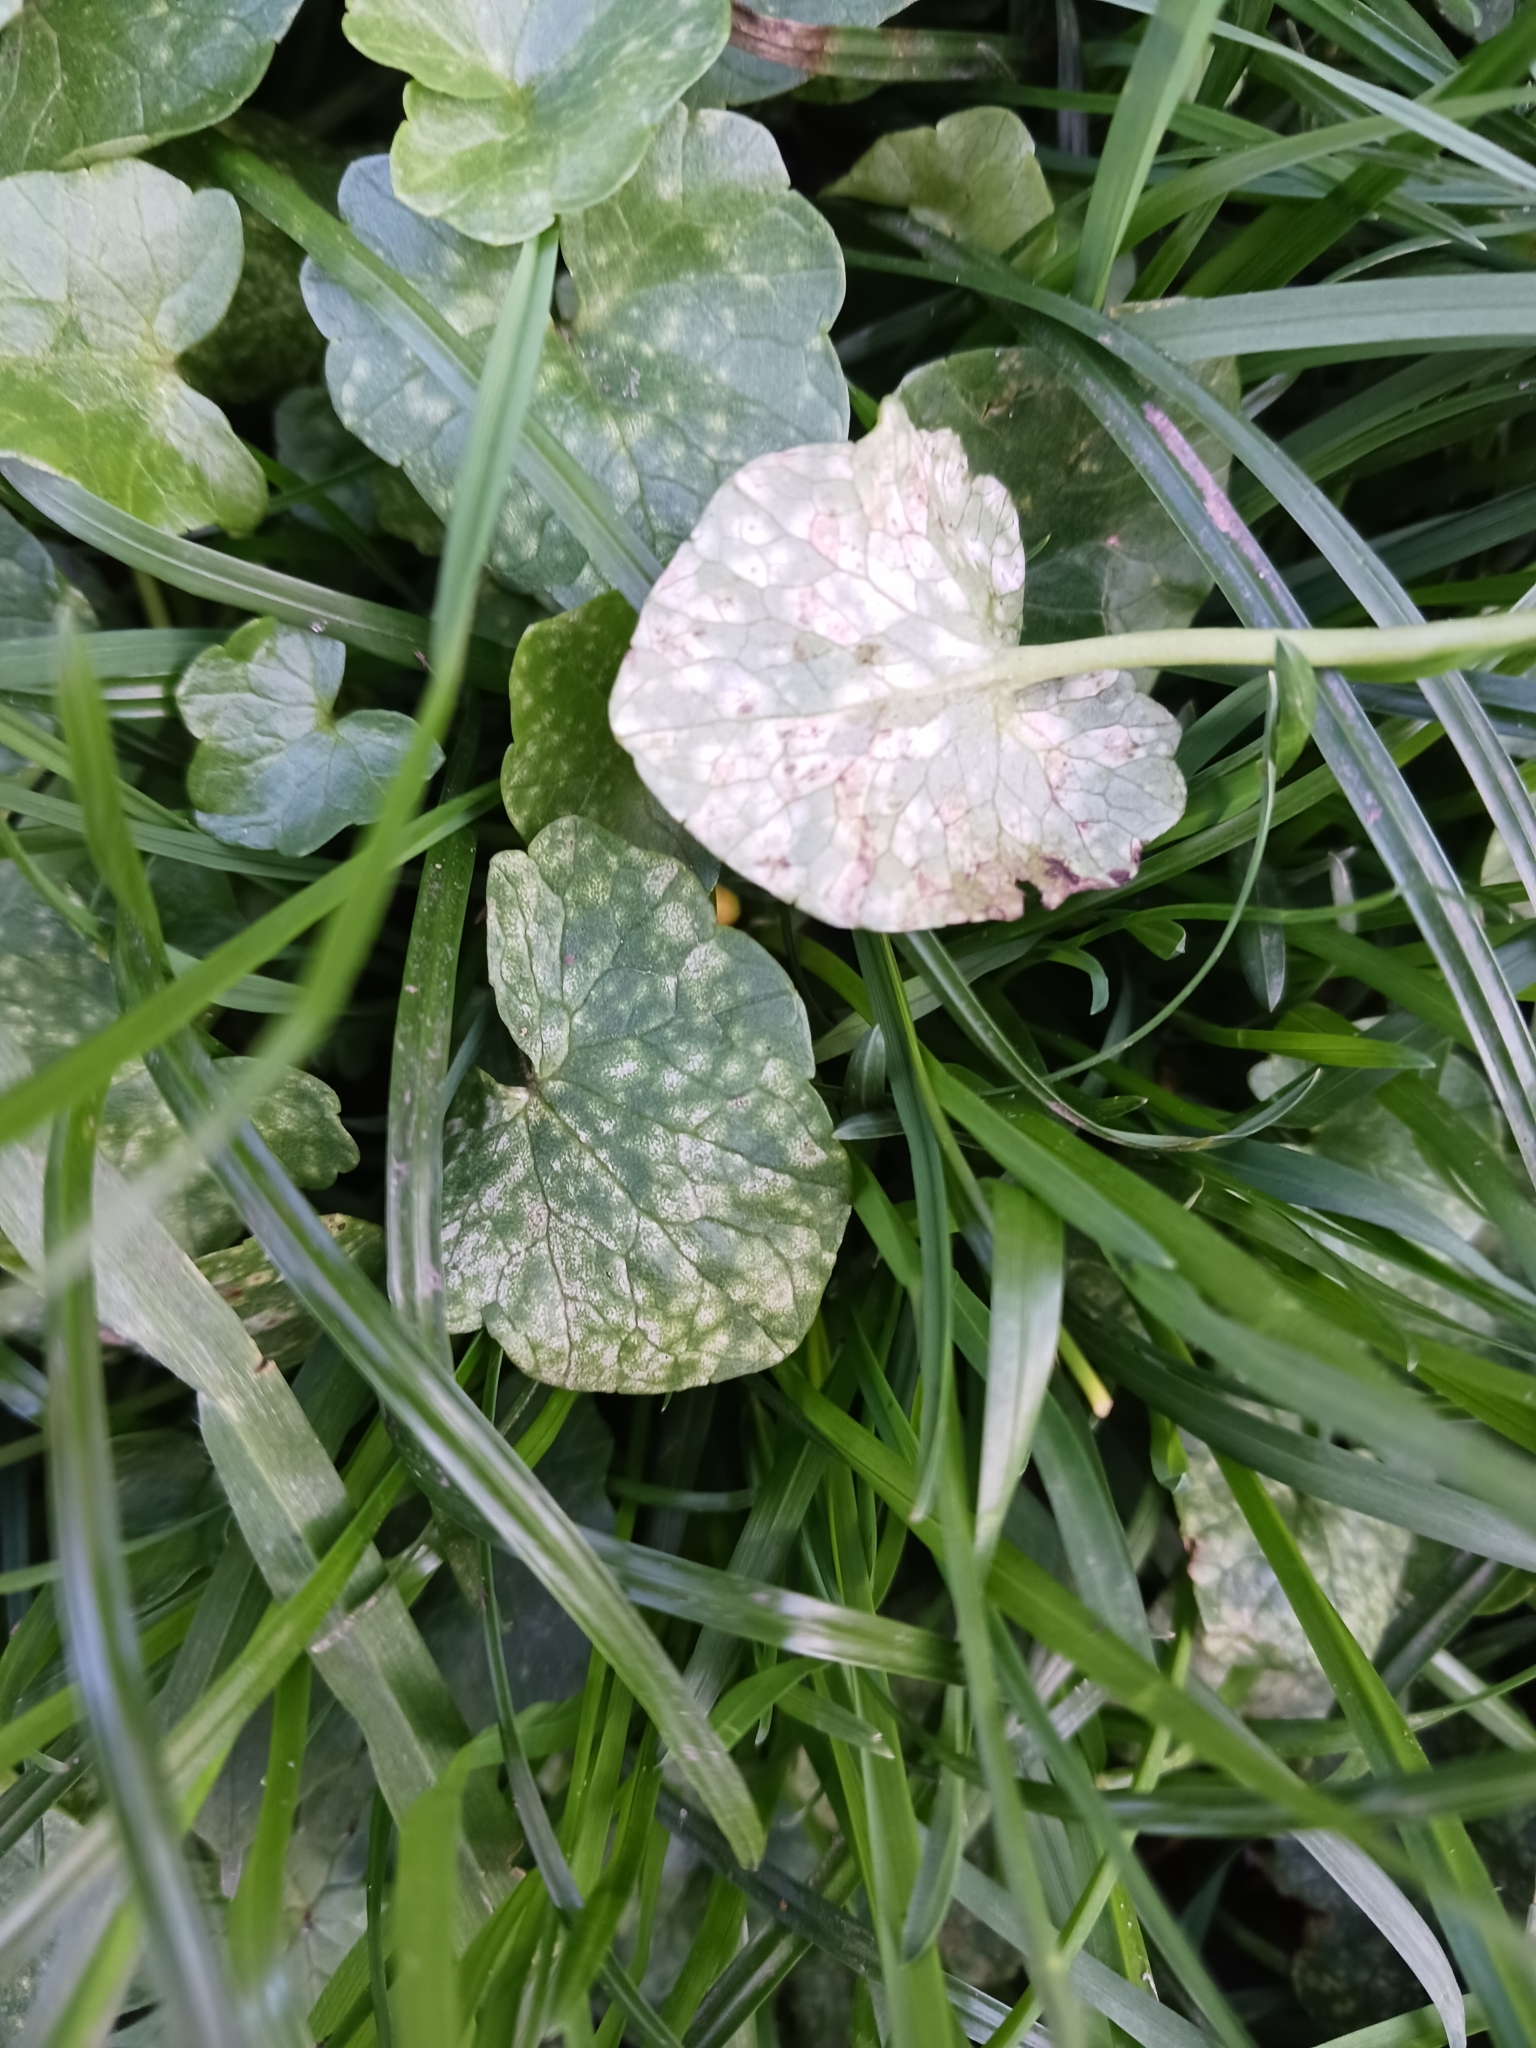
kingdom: Fungi
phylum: Basidiomycota
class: Exobasidiomycetes
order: Entylomatales
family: Entylomataceae
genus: Entyloma
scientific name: Entyloma ficariae
